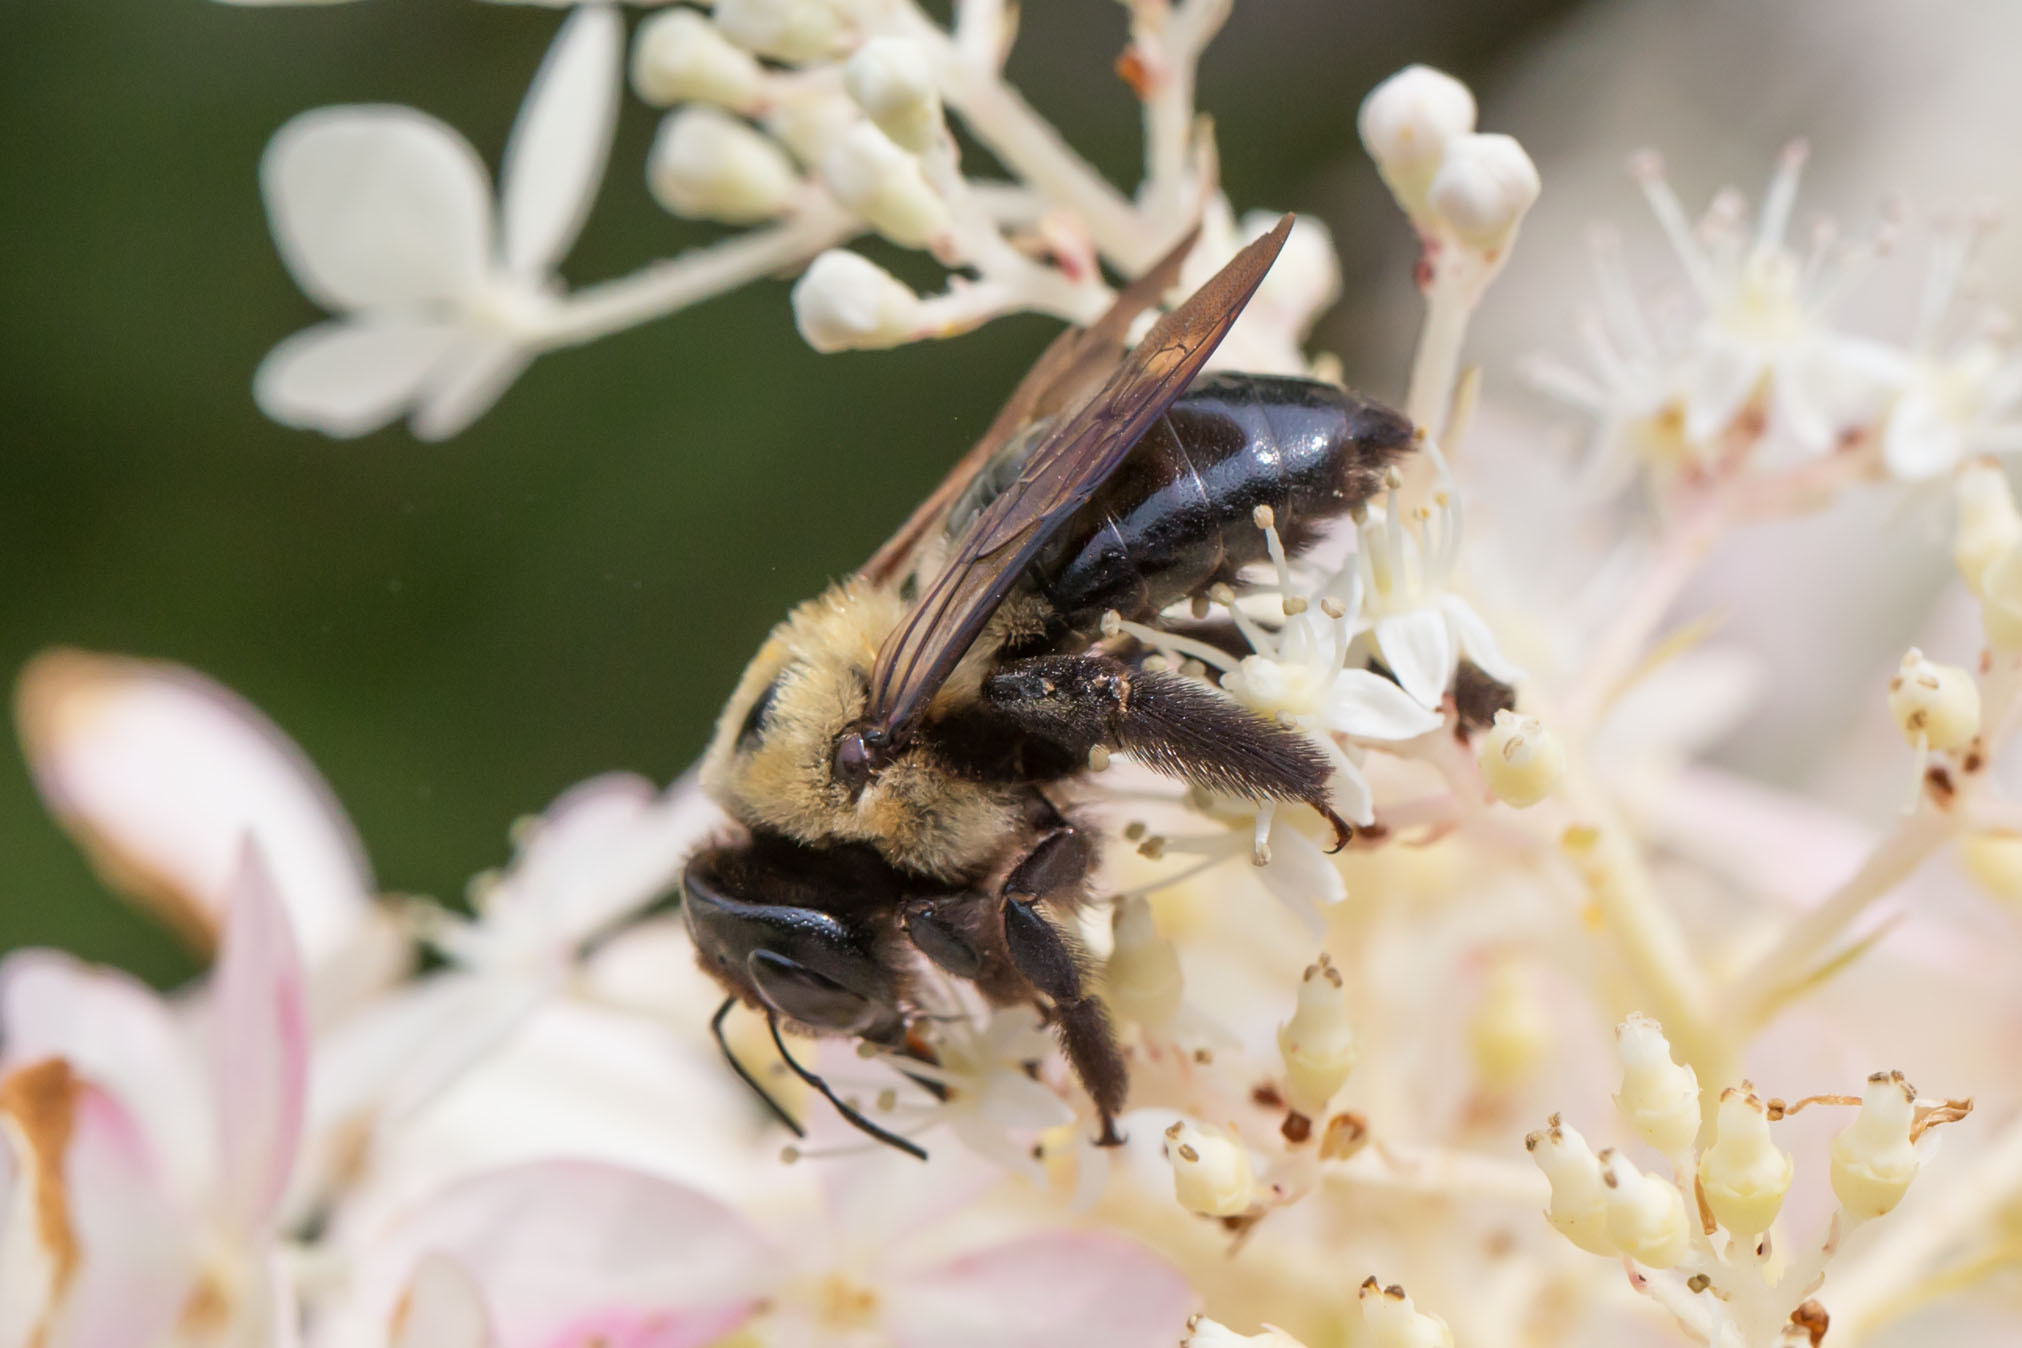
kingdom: Animalia
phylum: Arthropoda
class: Insecta
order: Hymenoptera
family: Apidae
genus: Xylocopa
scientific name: Xylocopa virginica
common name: Carpenter bee
